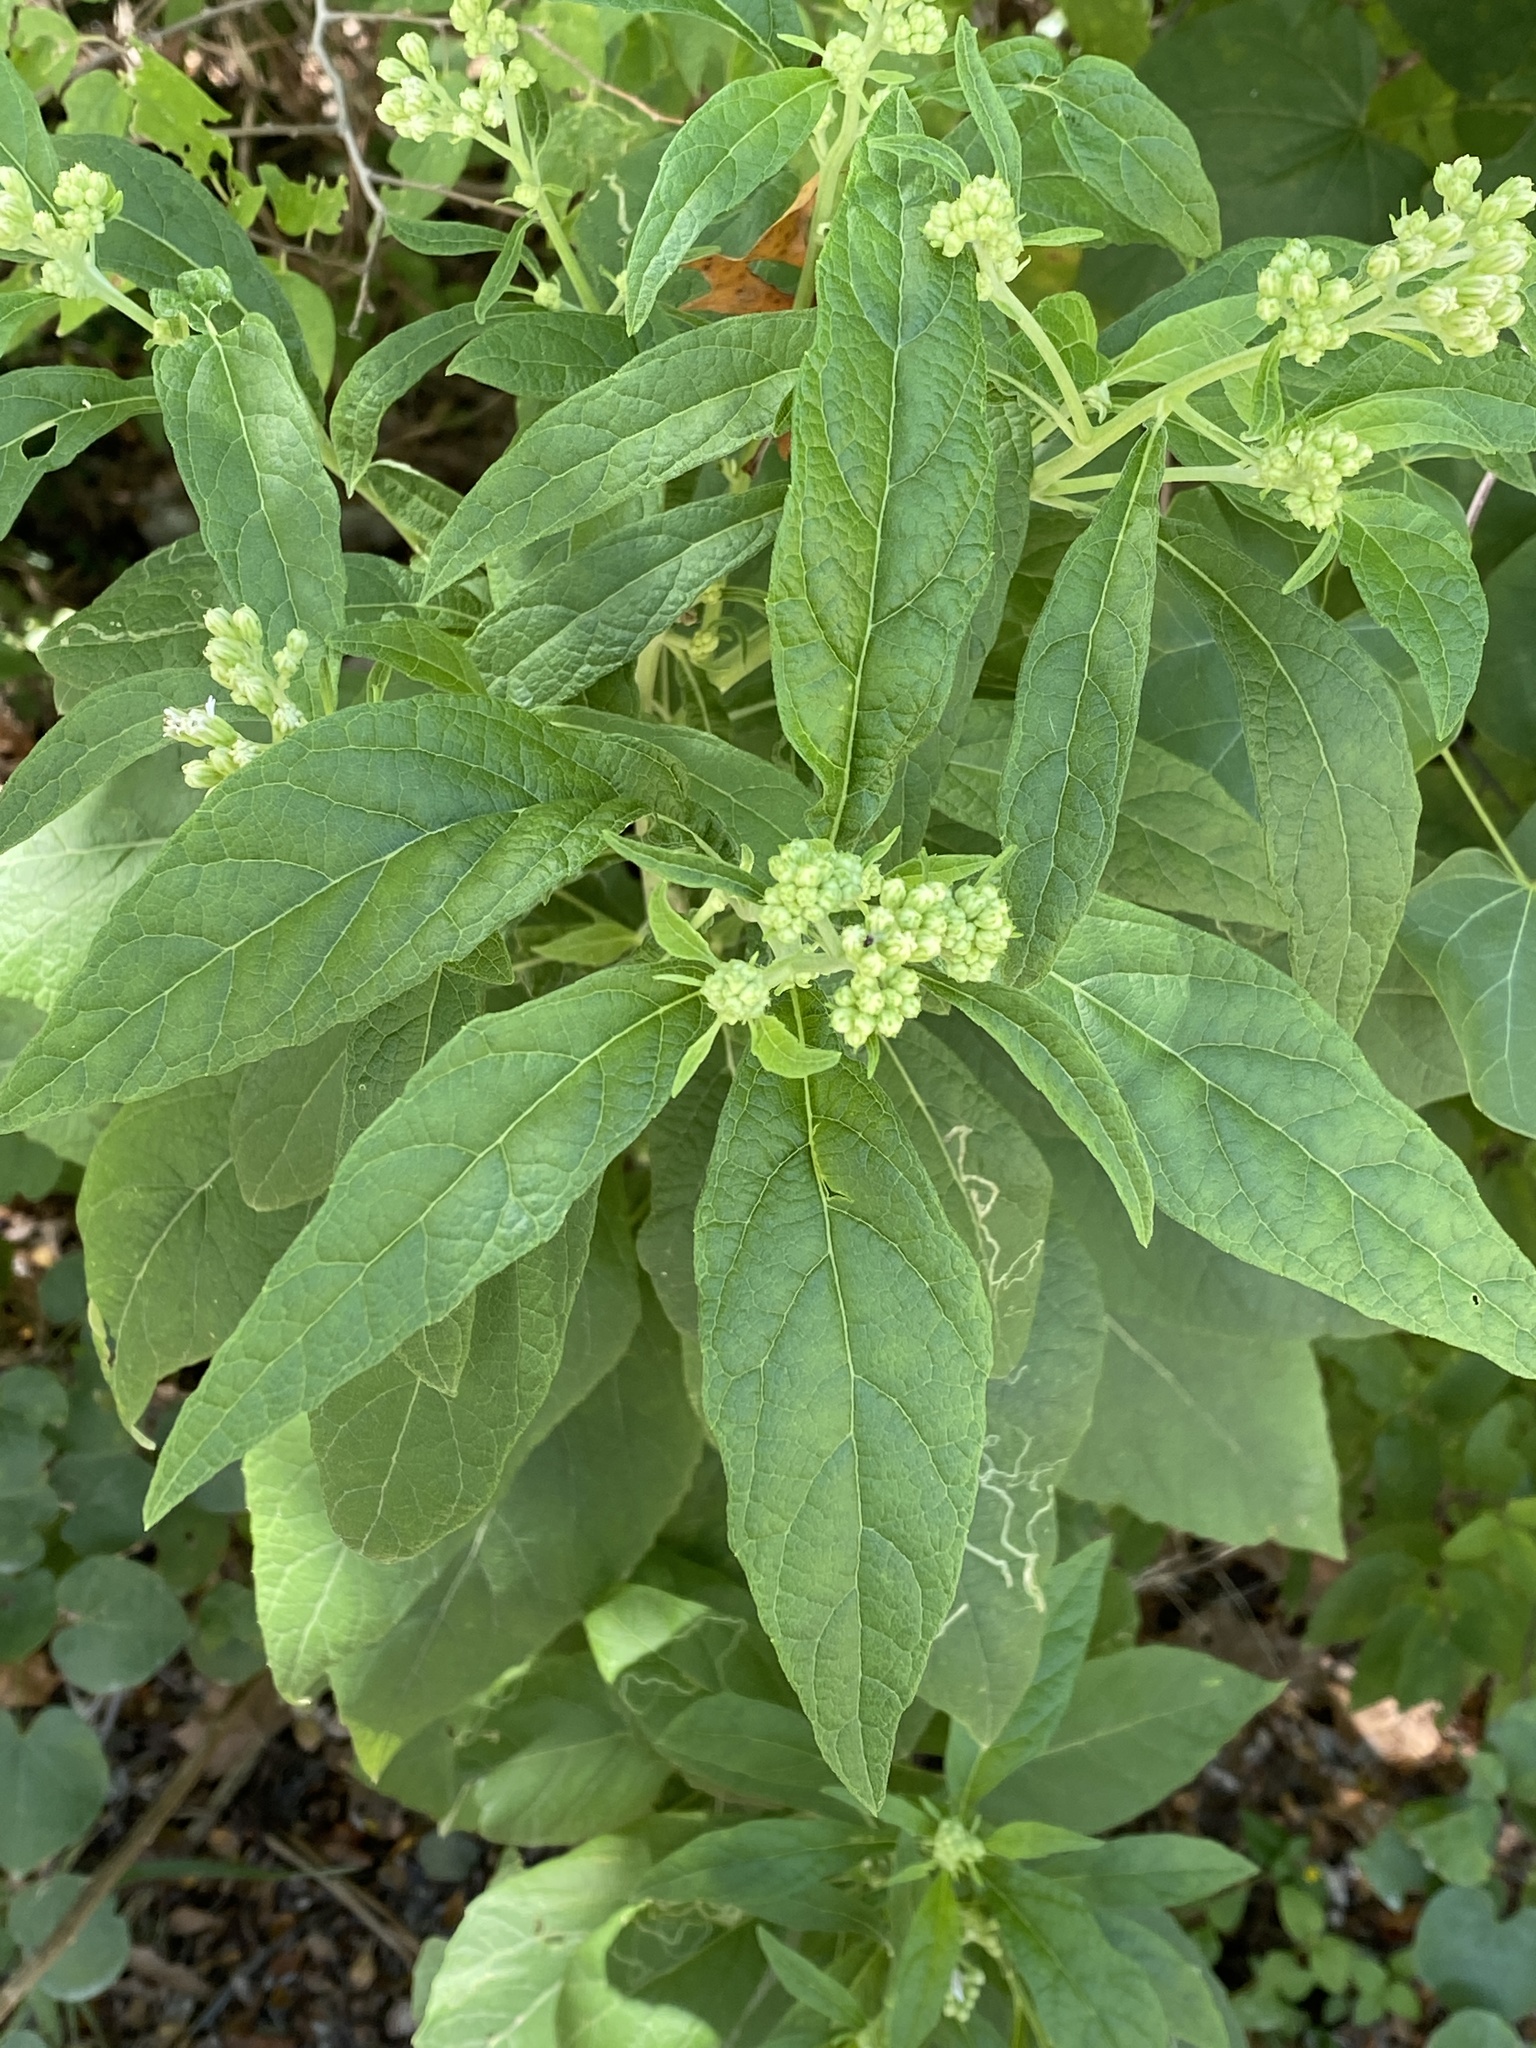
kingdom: Plantae
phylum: Tracheophyta
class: Magnoliopsida
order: Asterales
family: Asteraceae
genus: Verbesina
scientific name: Verbesina virginica
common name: Frostweed
